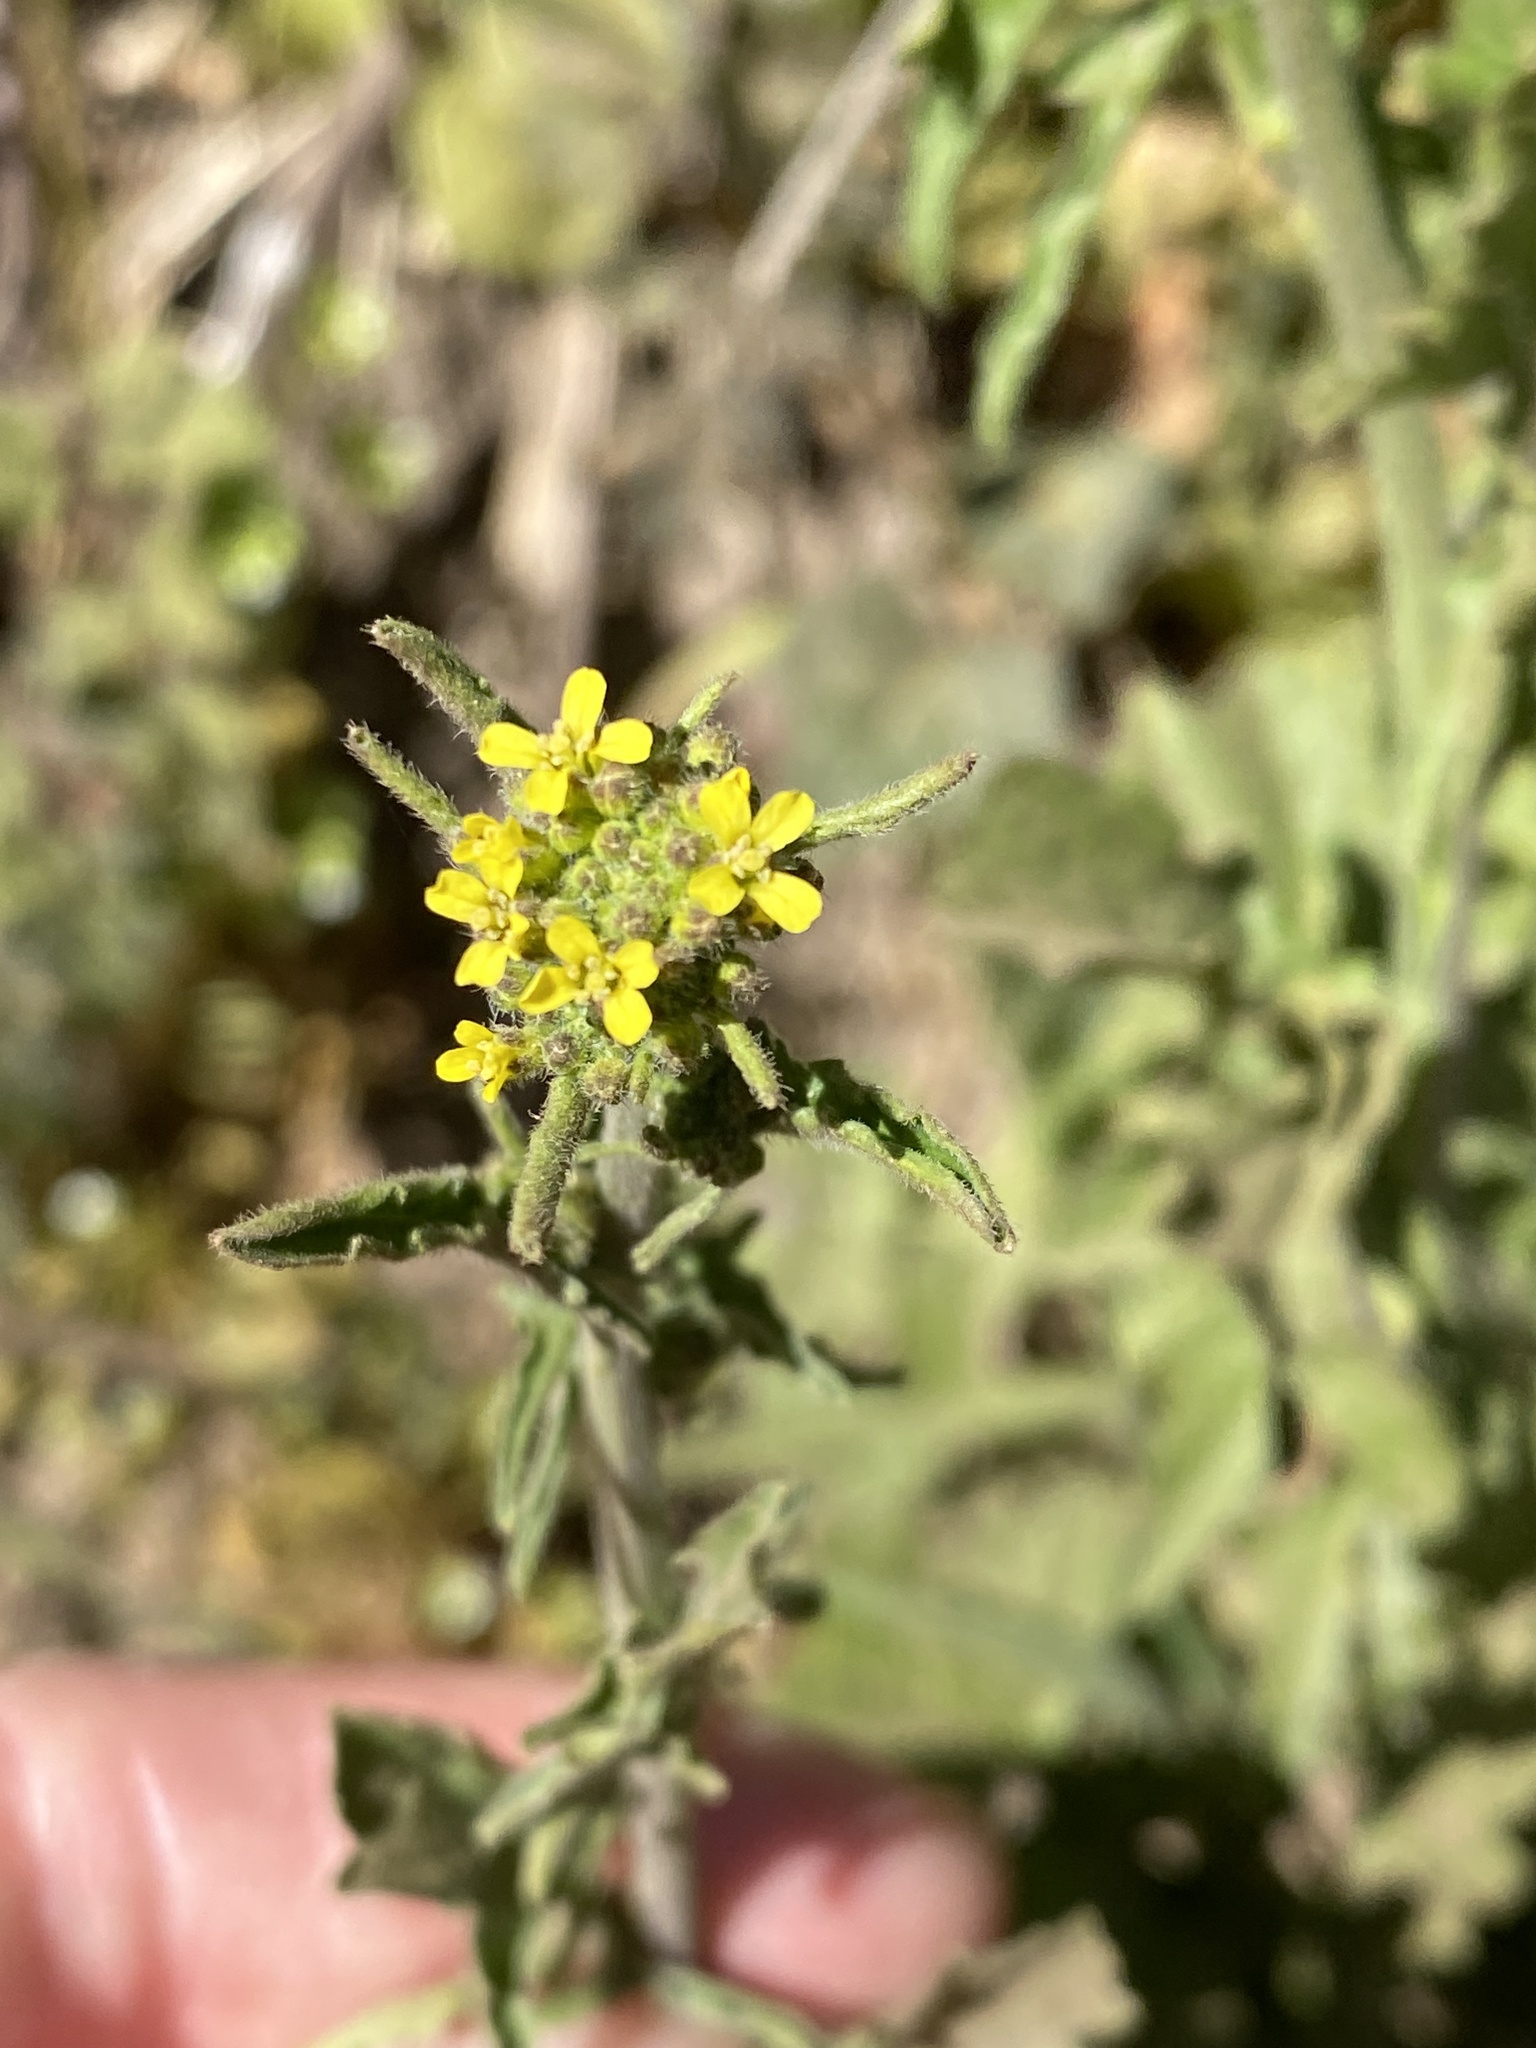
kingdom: Plantae
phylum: Tracheophyta
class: Magnoliopsida
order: Brassicales
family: Brassicaceae
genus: Sisymbrium
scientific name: Sisymbrium officinale
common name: Hedge mustard
